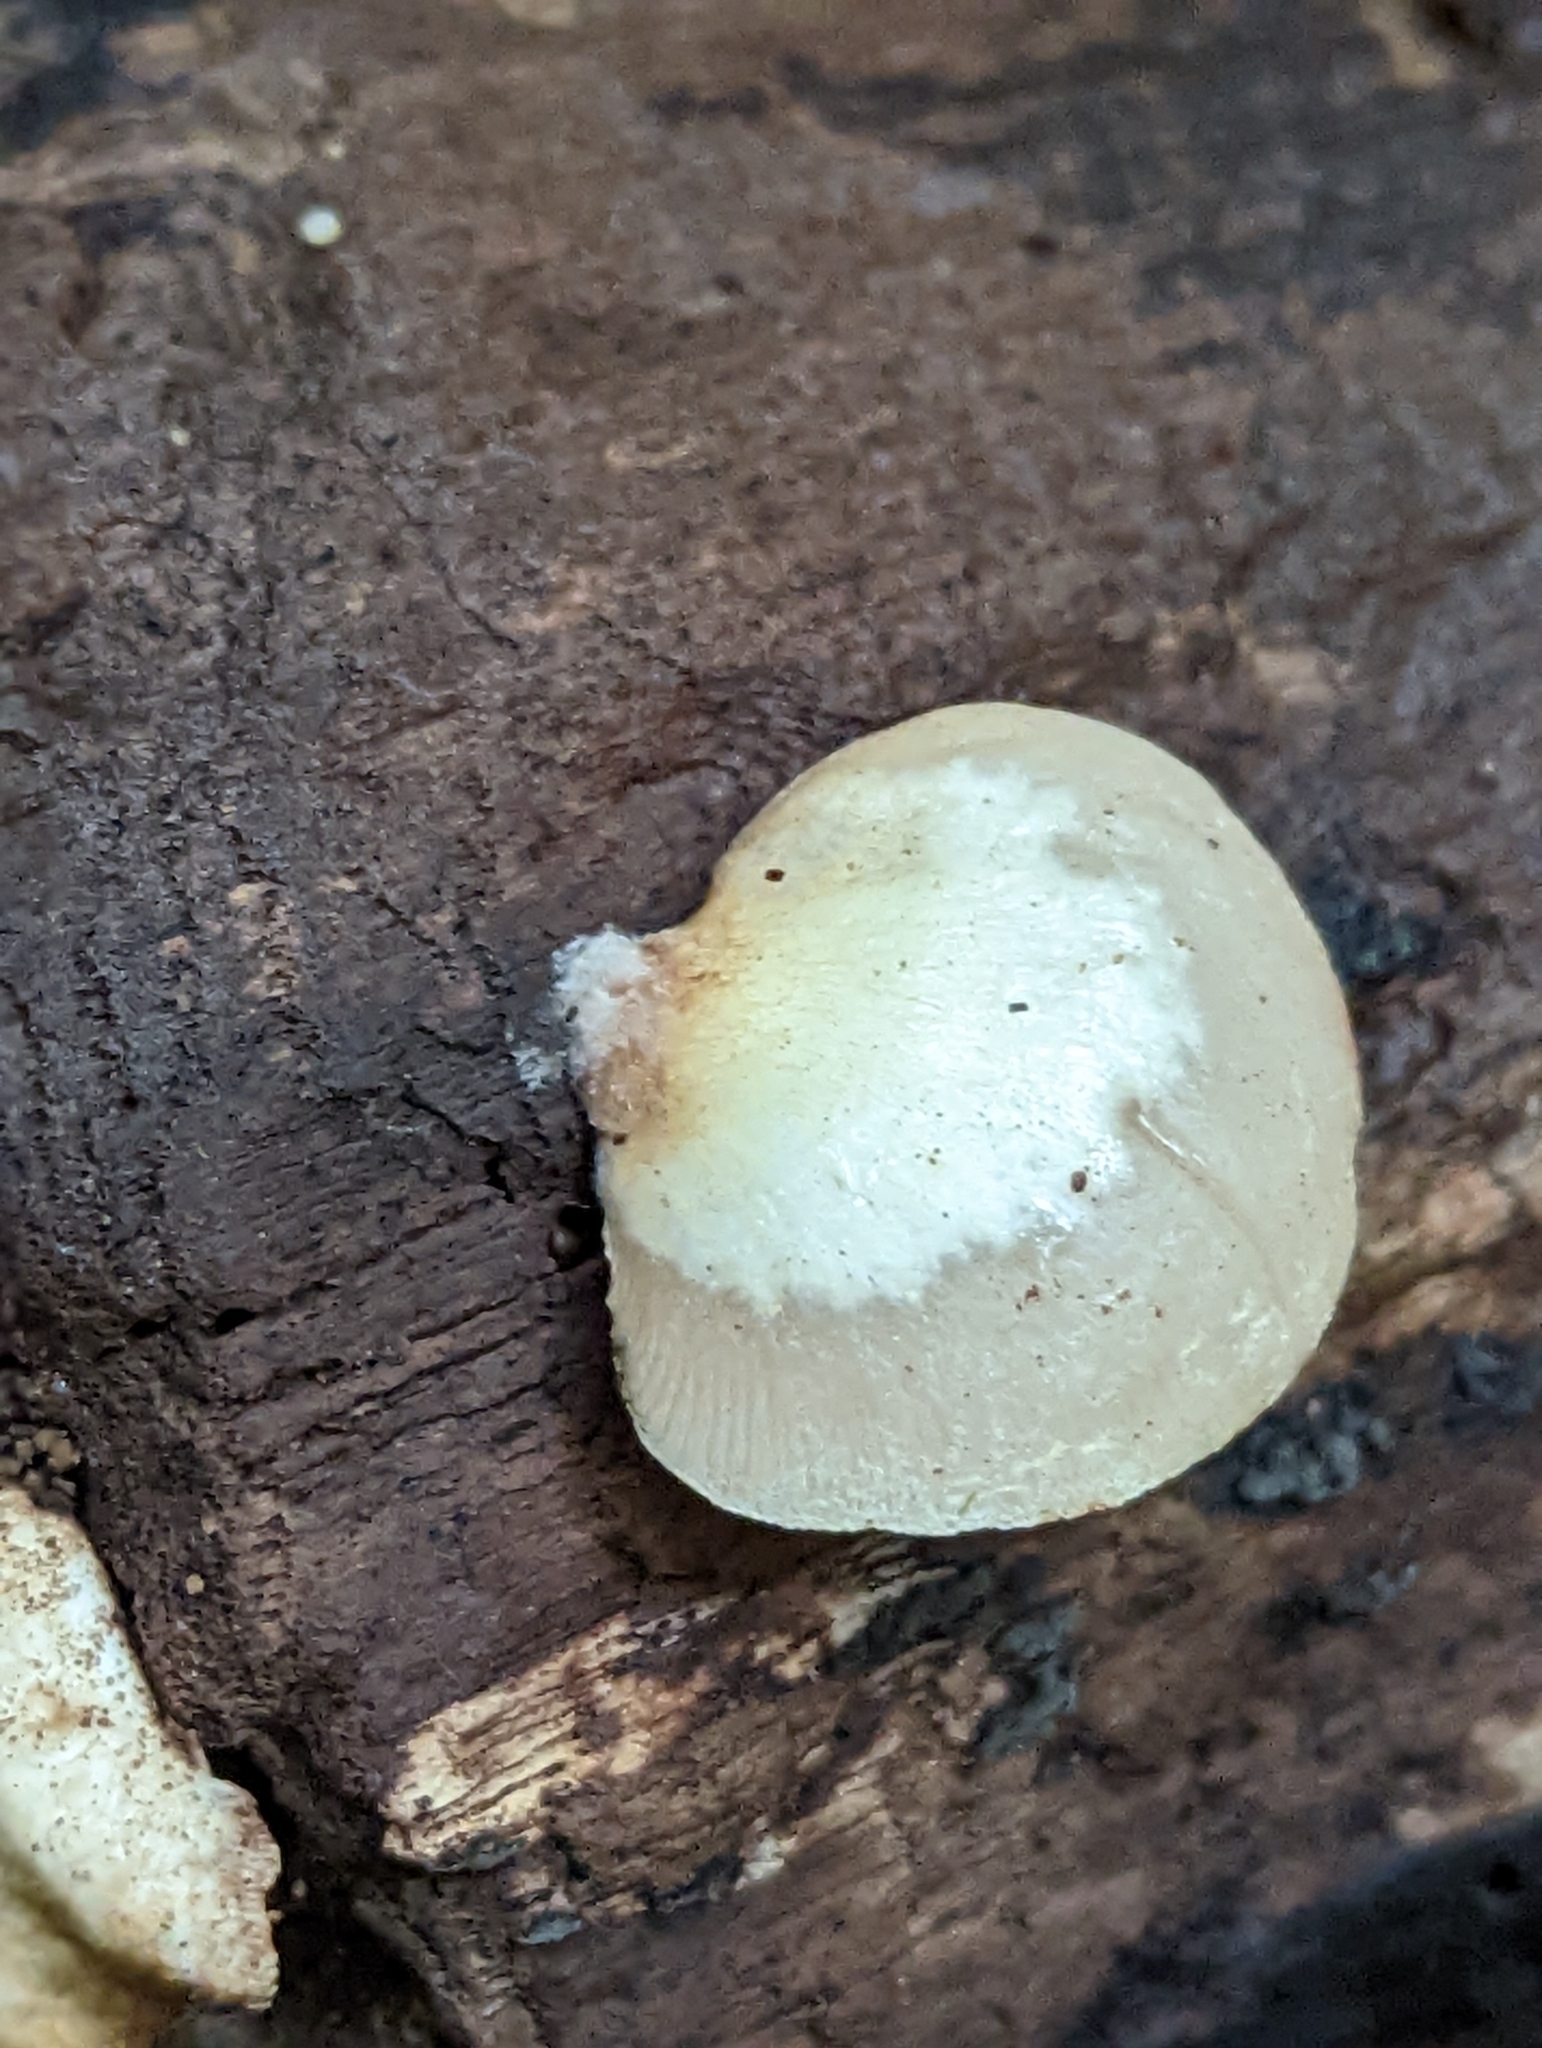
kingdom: Fungi
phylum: Basidiomycota
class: Agaricomycetes
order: Agaricales
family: Crepidotaceae
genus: Crepidotus
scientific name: Crepidotus mollis
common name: Peeling oysterling
